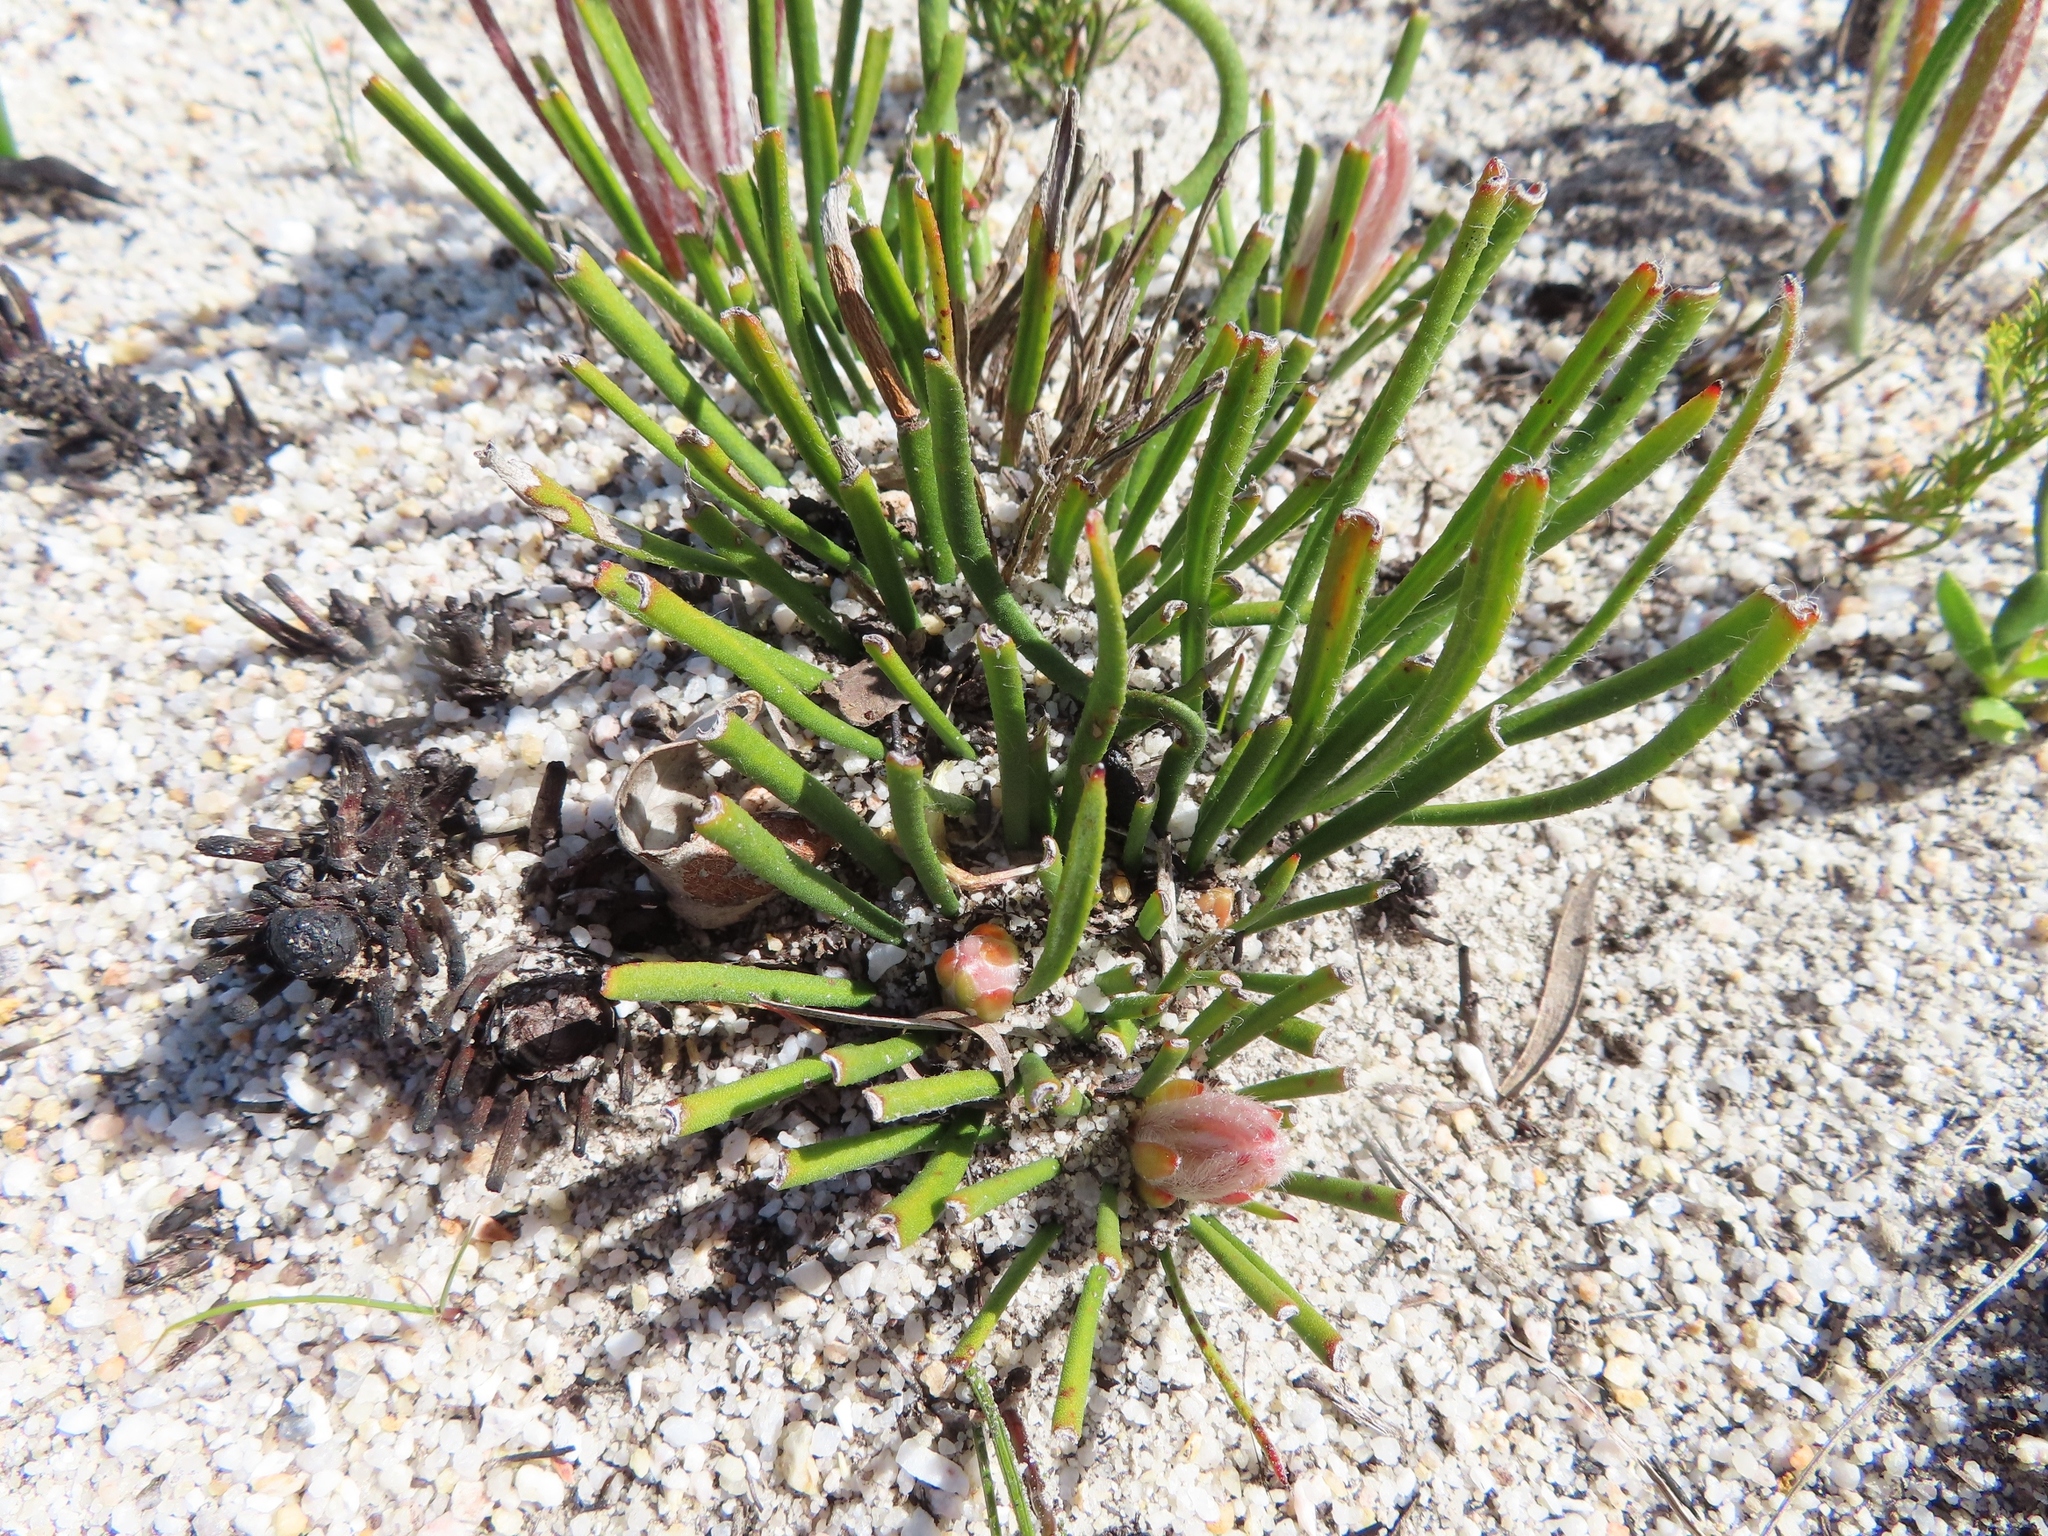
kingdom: Plantae
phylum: Tracheophyta
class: Magnoliopsida
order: Proteales
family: Proteaceae
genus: Protea
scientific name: Protea scabra
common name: Sandpaper-leaf sugarbush
